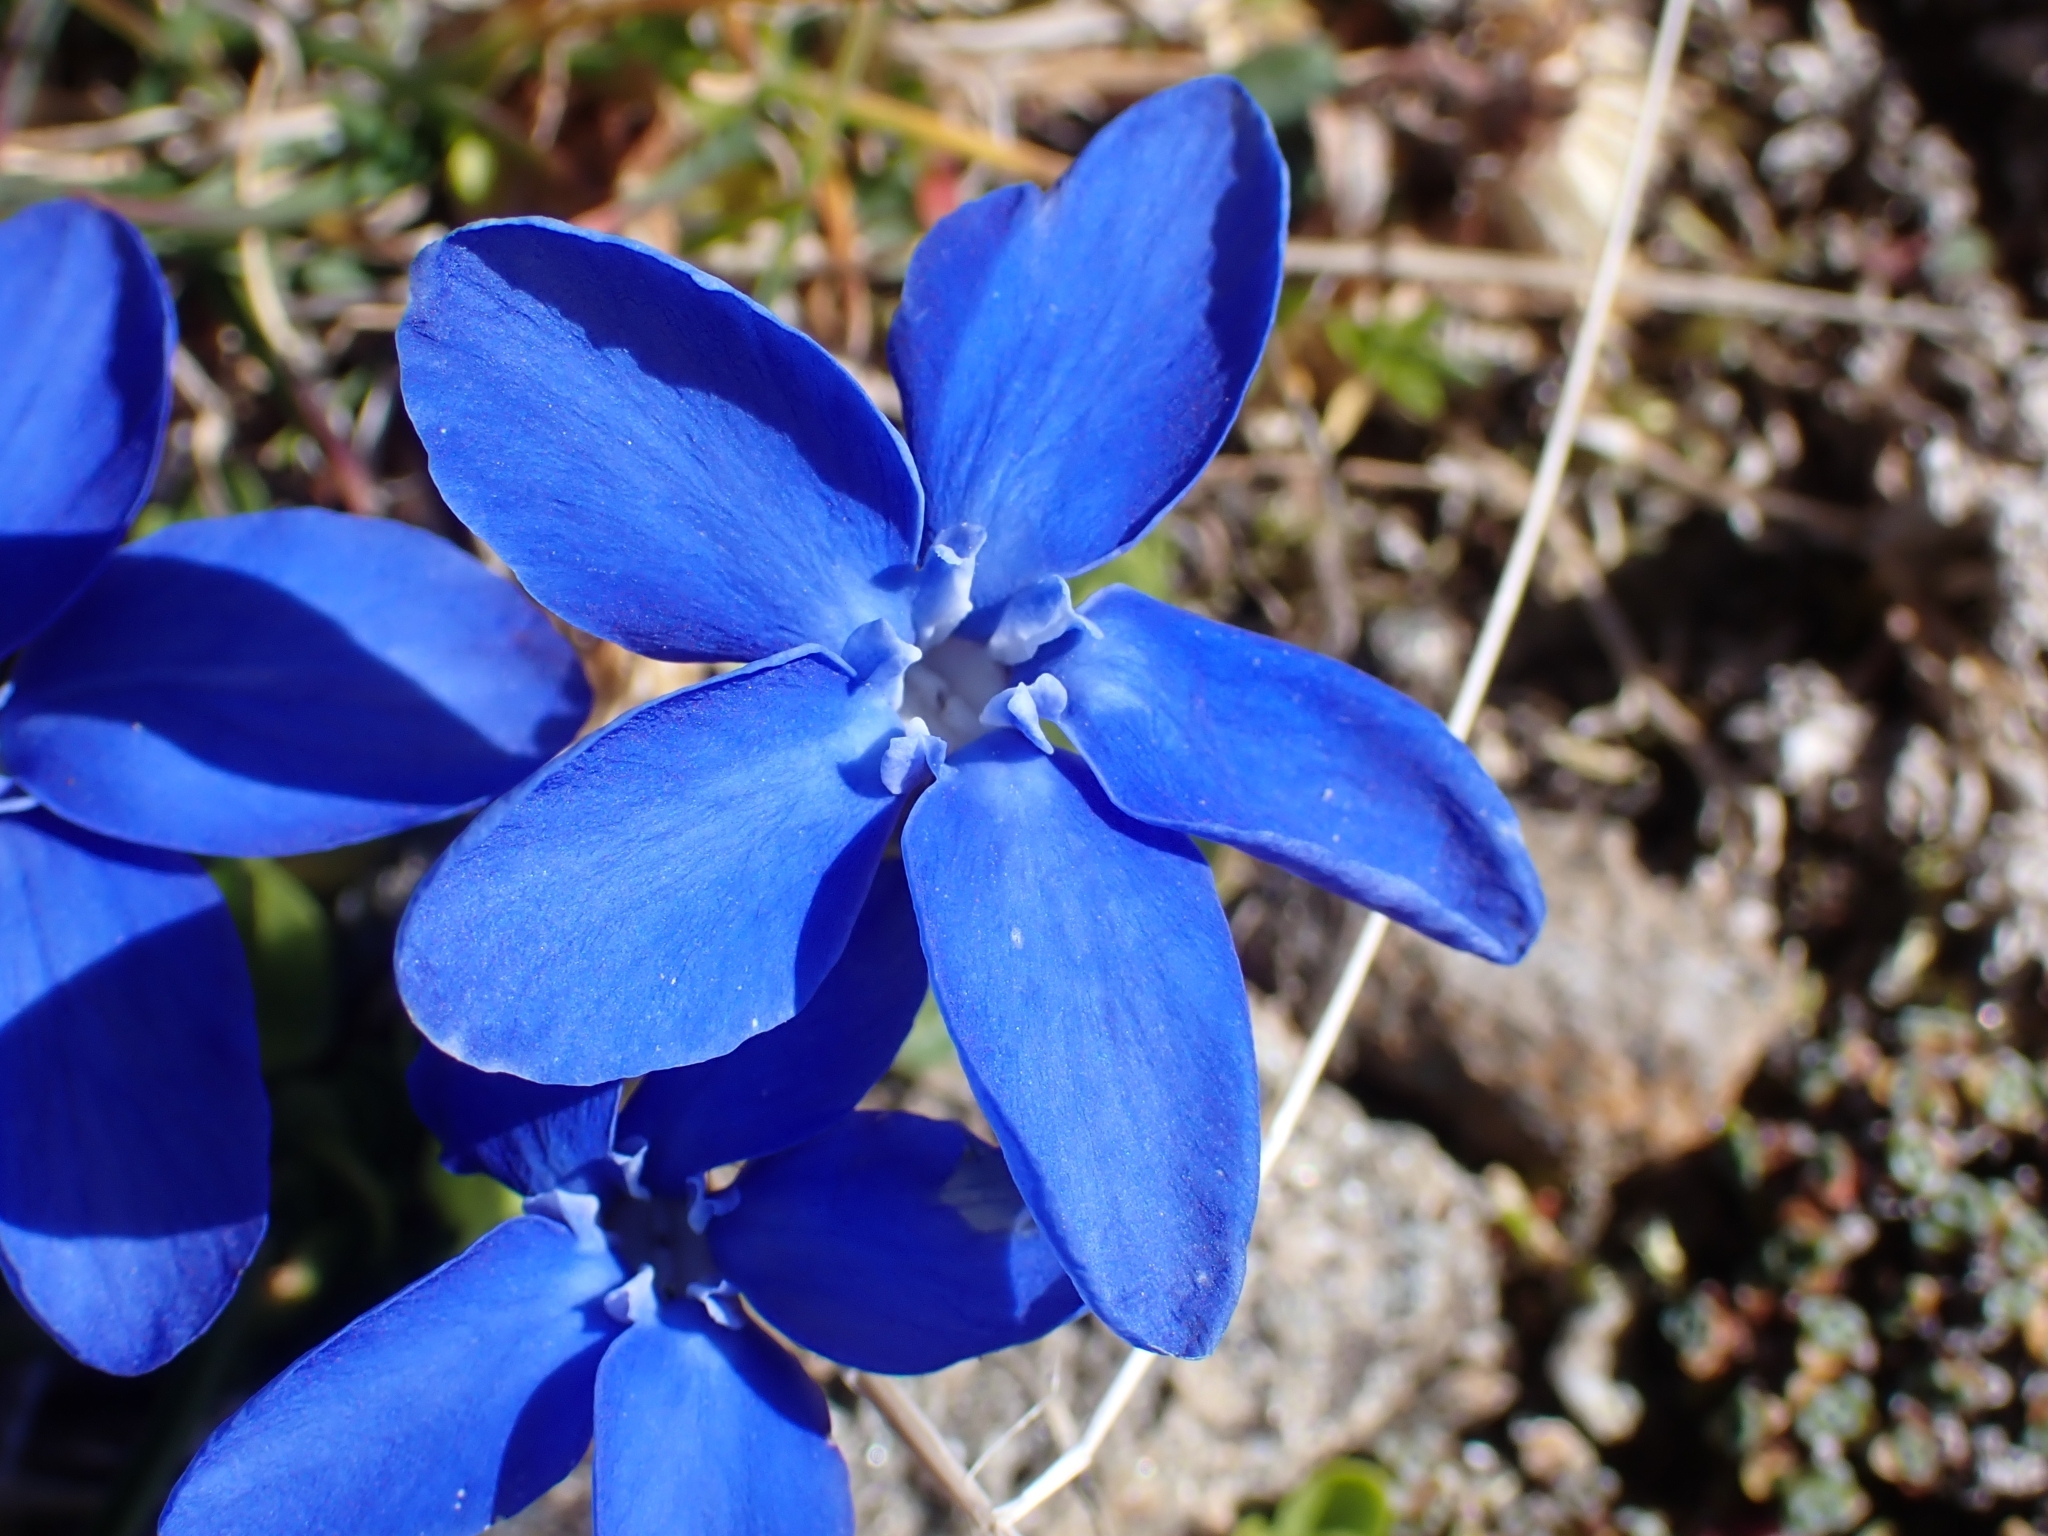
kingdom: Plantae
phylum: Tracheophyta
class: Magnoliopsida
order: Gentianales
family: Gentianaceae
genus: Gentiana
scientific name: Gentiana bavarica
